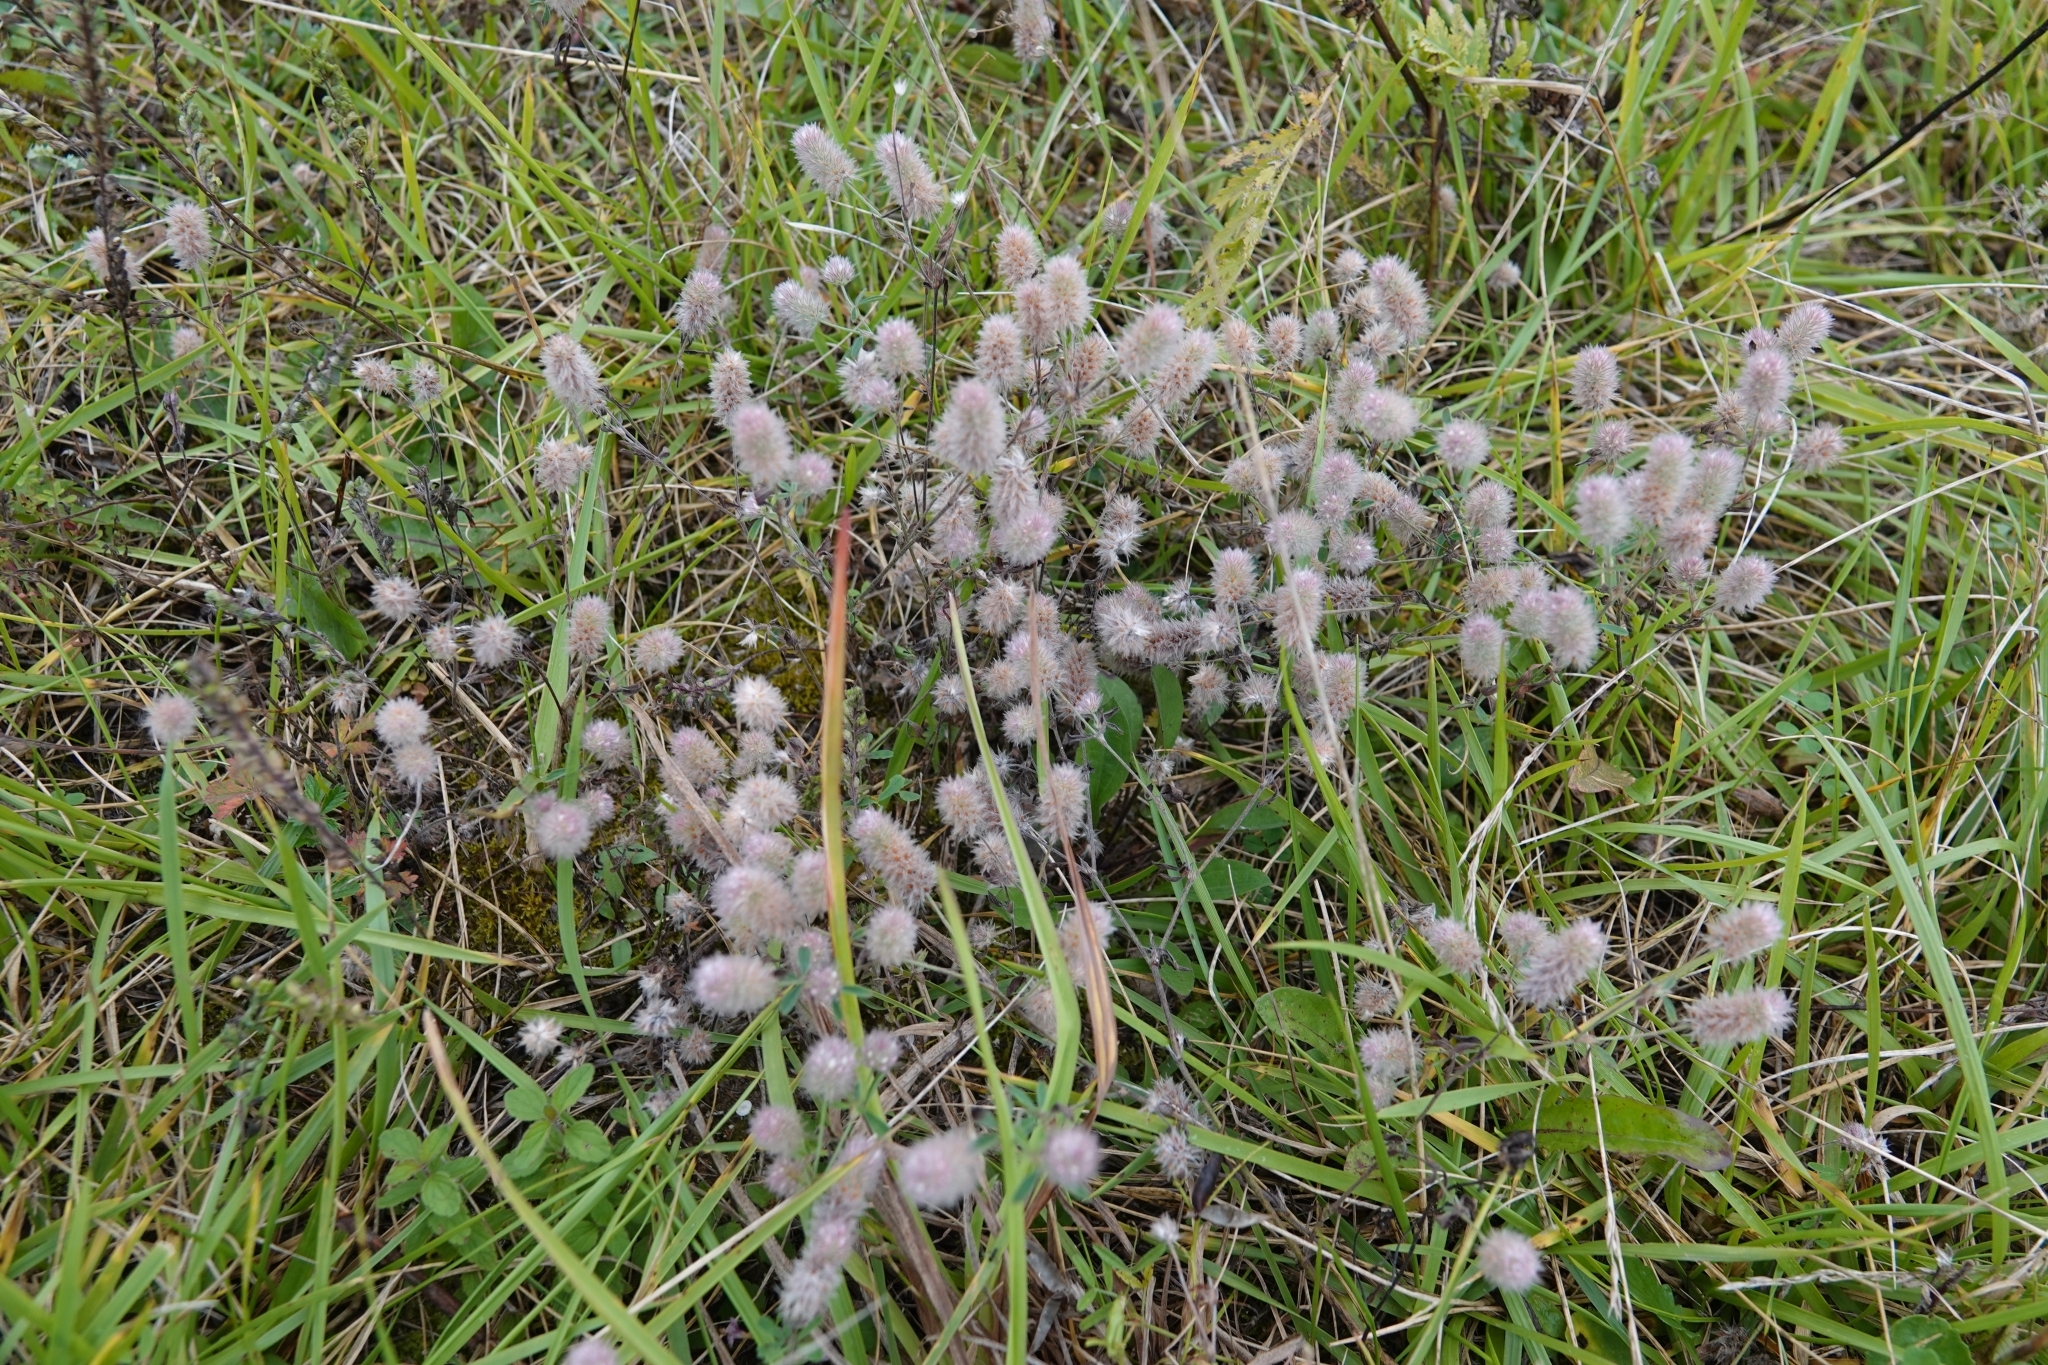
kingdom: Plantae
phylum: Tracheophyta
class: Magnoliopsida
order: Fabales
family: Fabaceae
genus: Trifolium
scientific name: Trifolium arvense
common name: Hare's-foot clover
